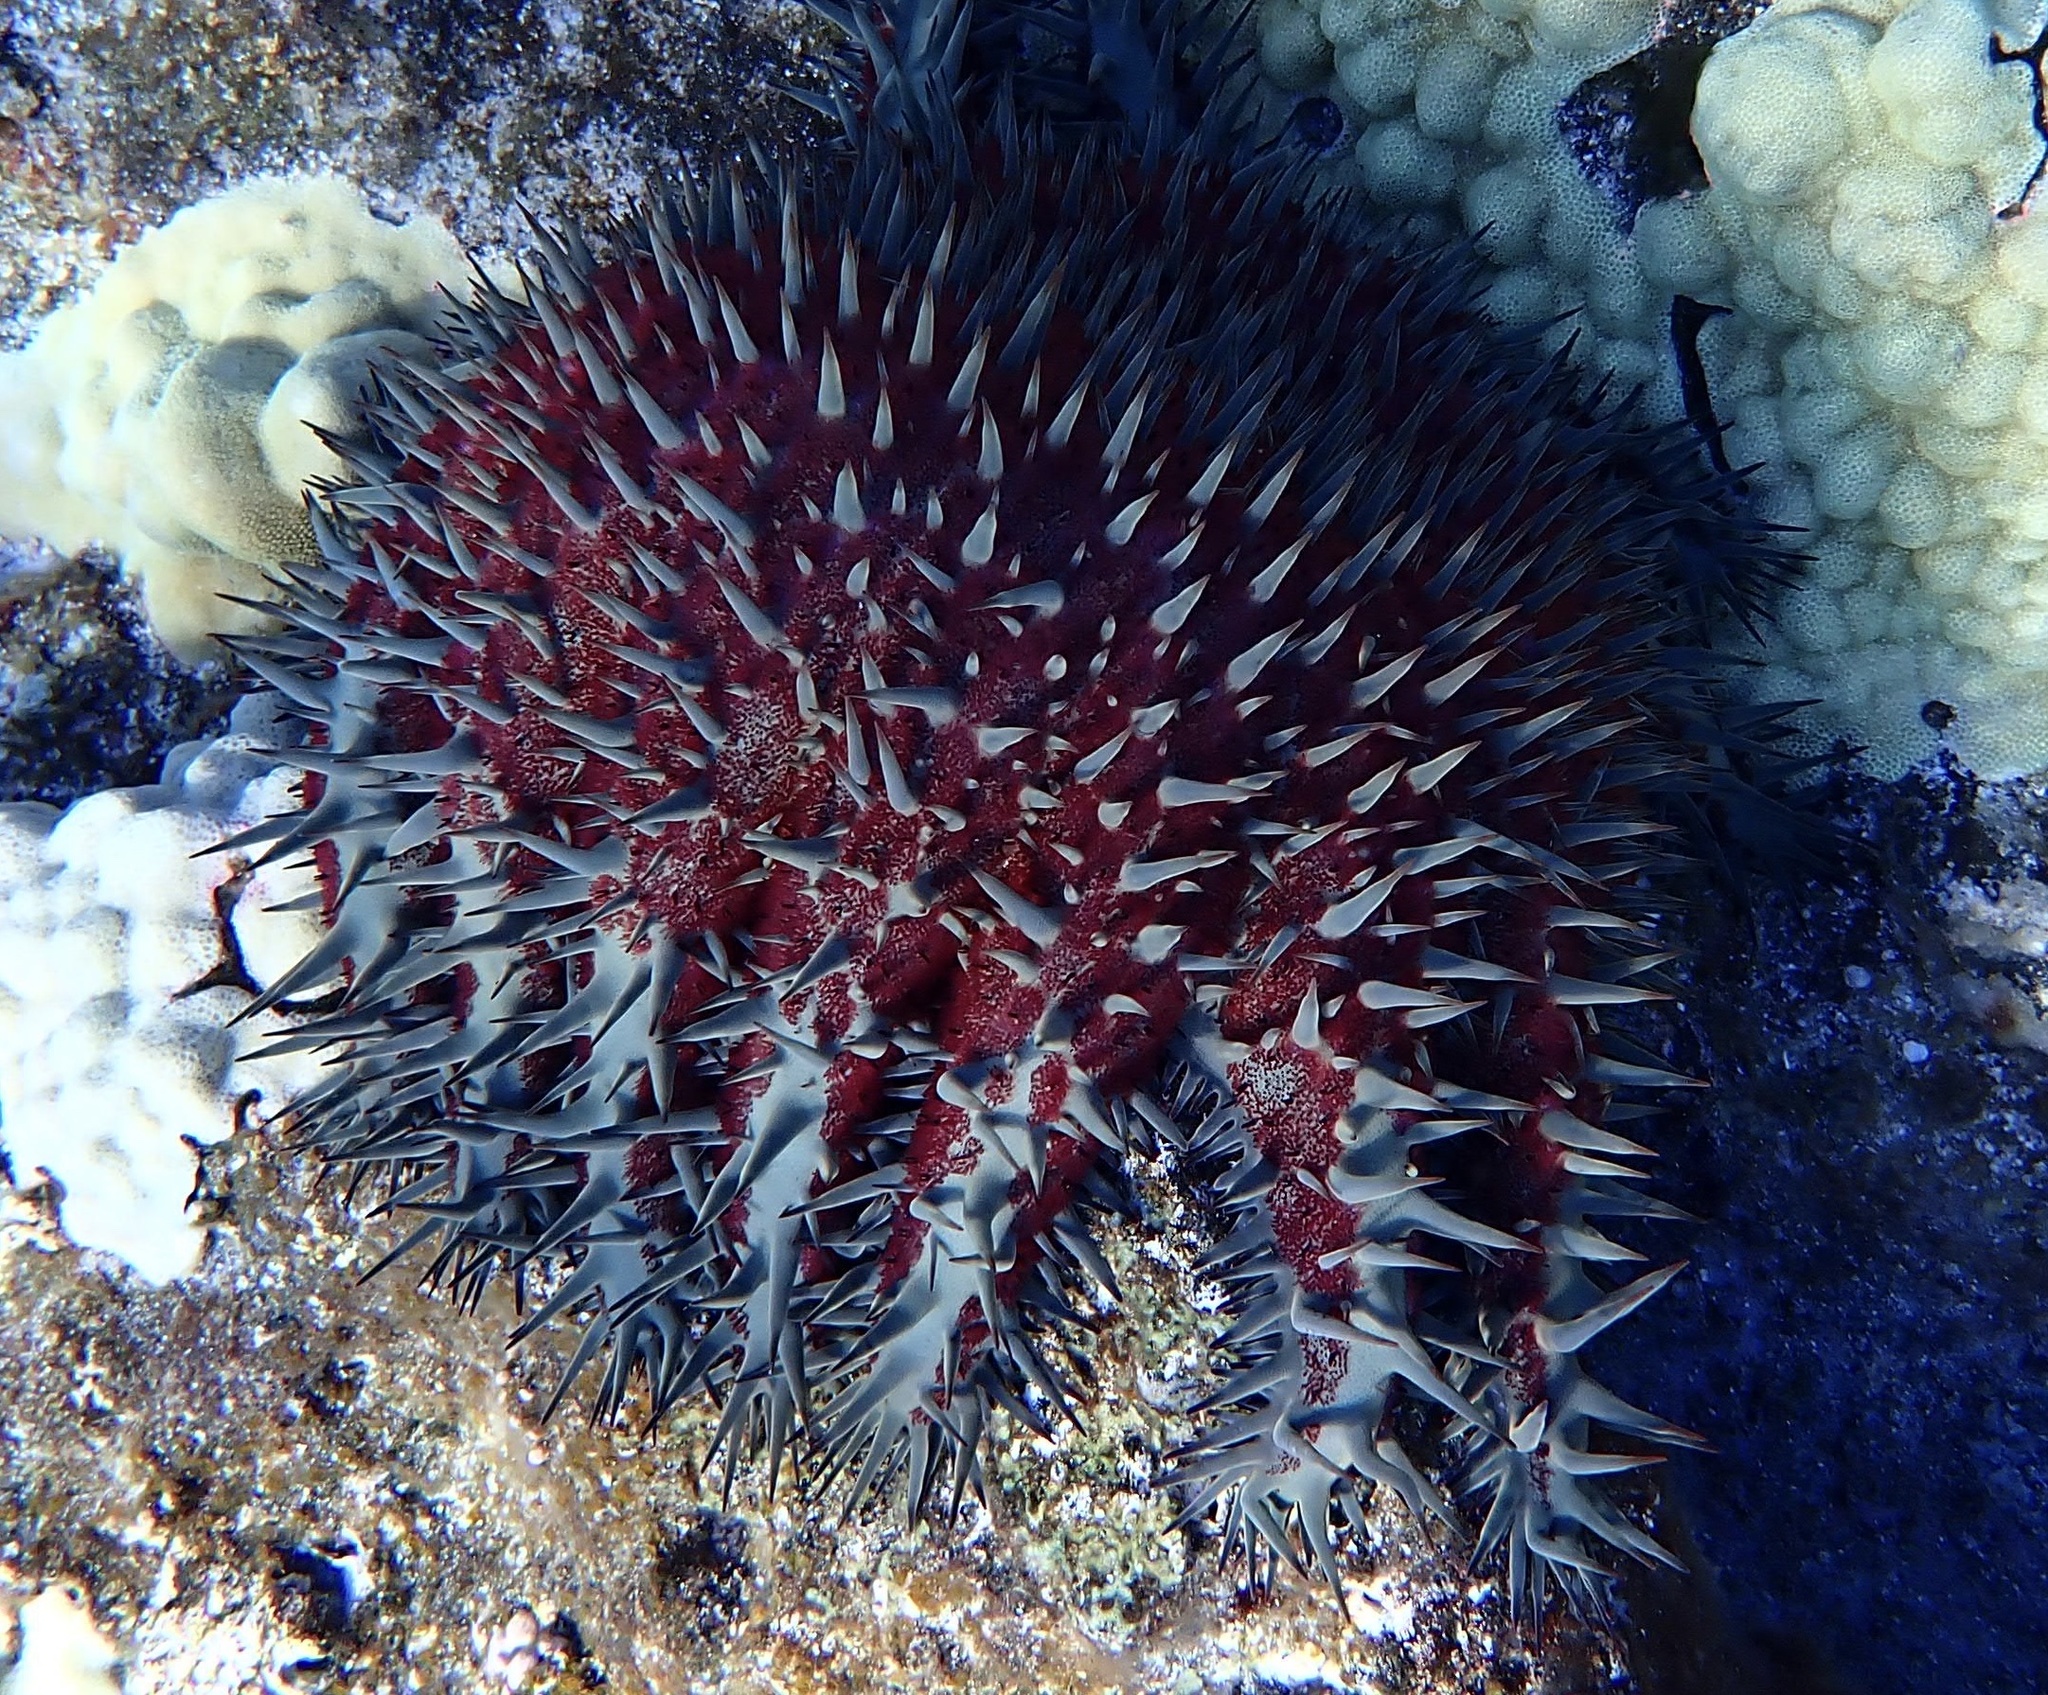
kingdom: Animalia
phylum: Echinodermata
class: Asteroidea
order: Valvatida
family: Acanthasteridae
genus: Acanthaster
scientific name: Acanthaster planci
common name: Crown-of-thorns
